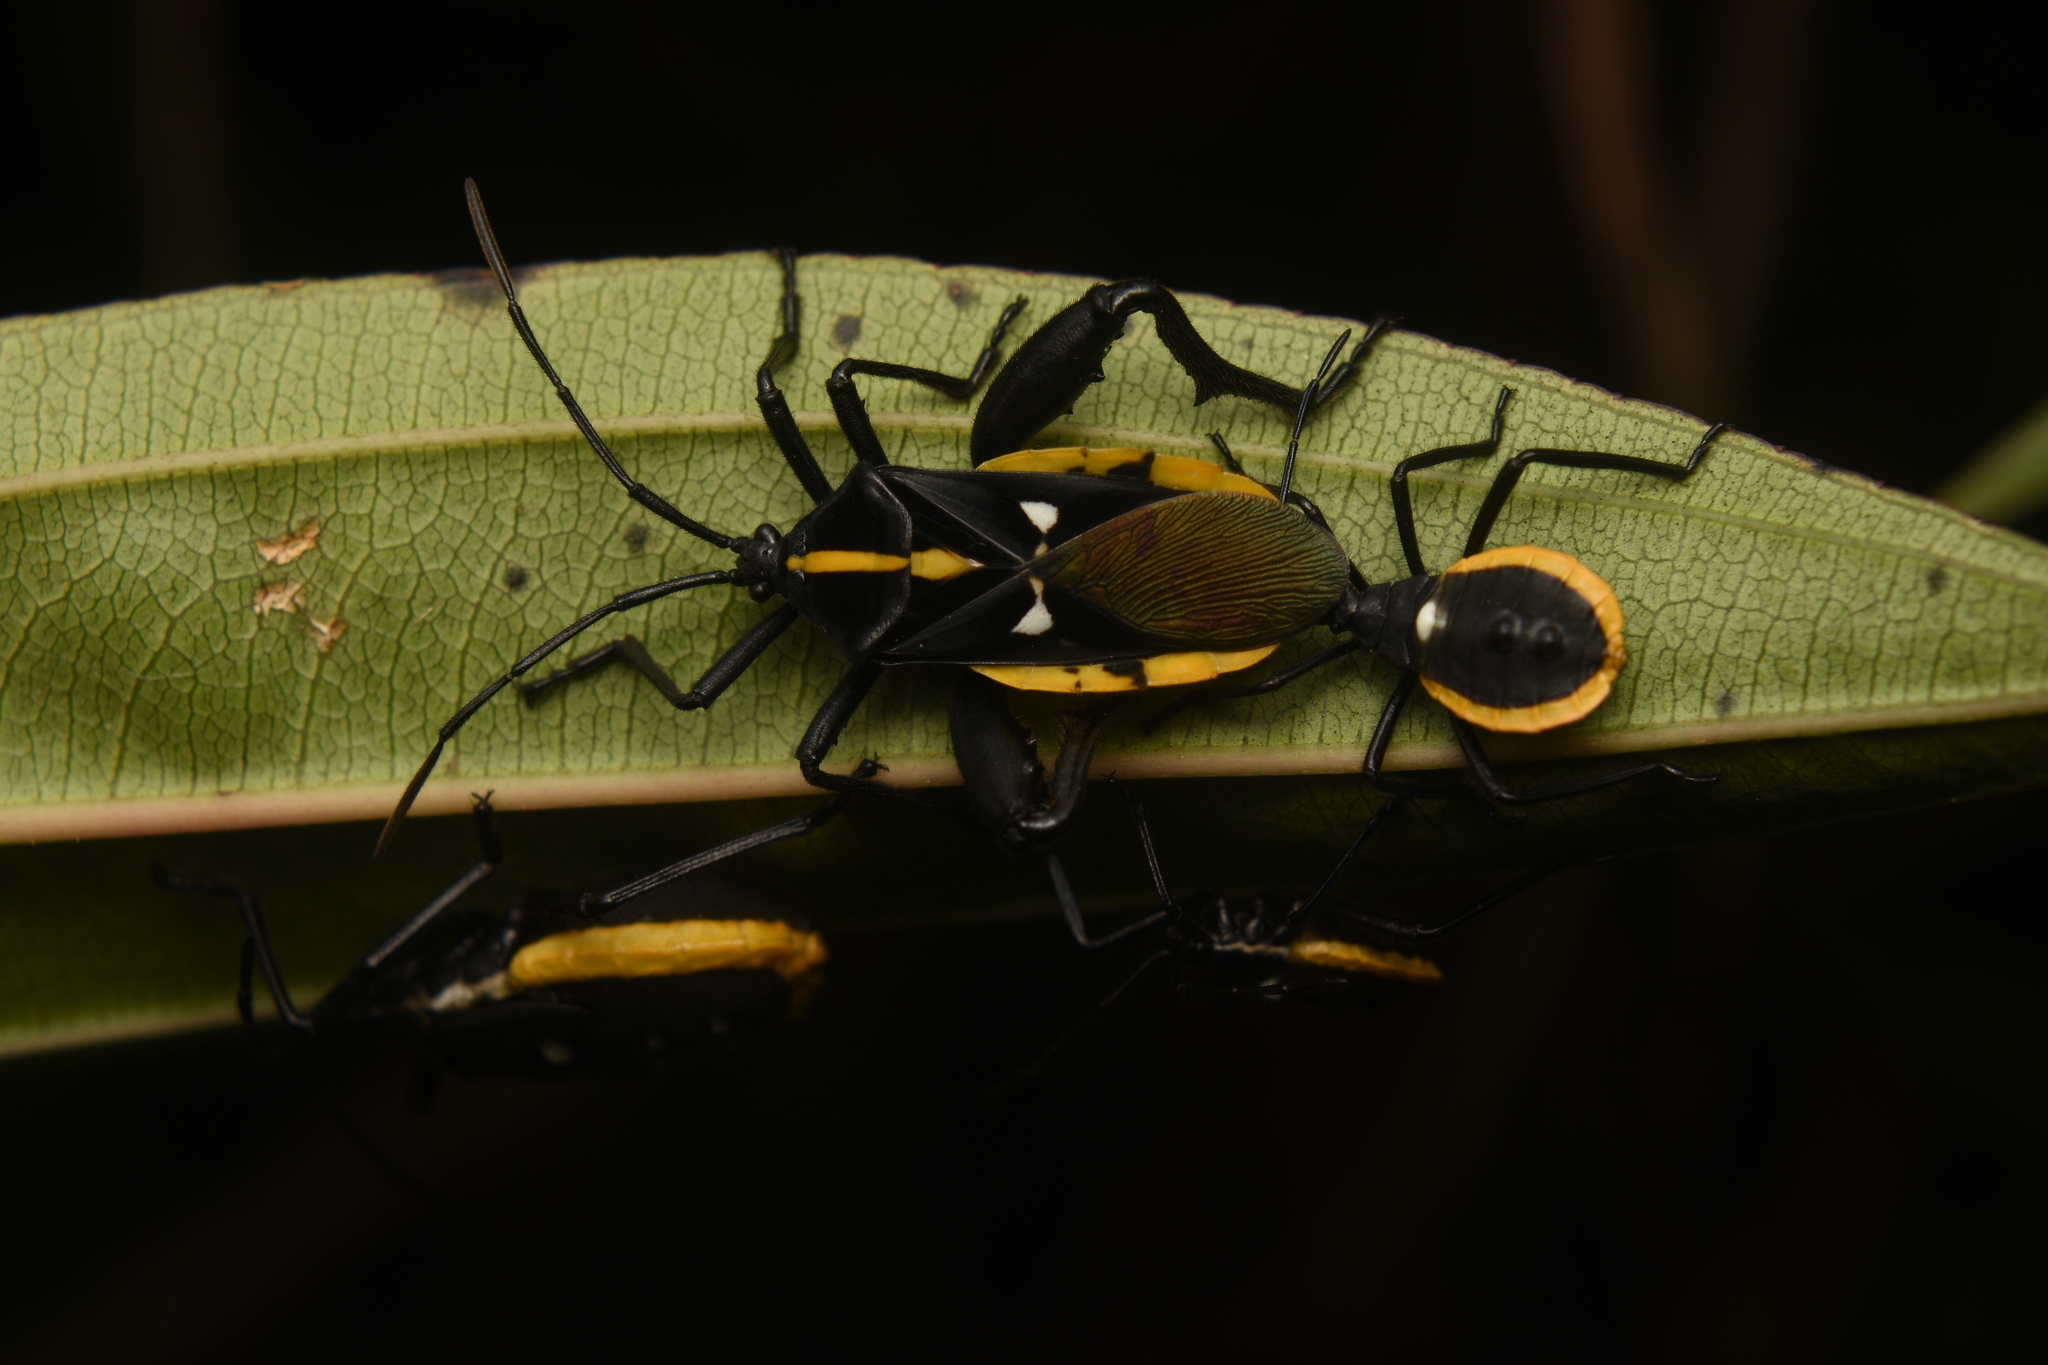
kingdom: Animalia
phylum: Arthropoda
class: Insecta
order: Hemiptera
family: Coreidae
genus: Curtius
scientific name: Curtius marginalis
